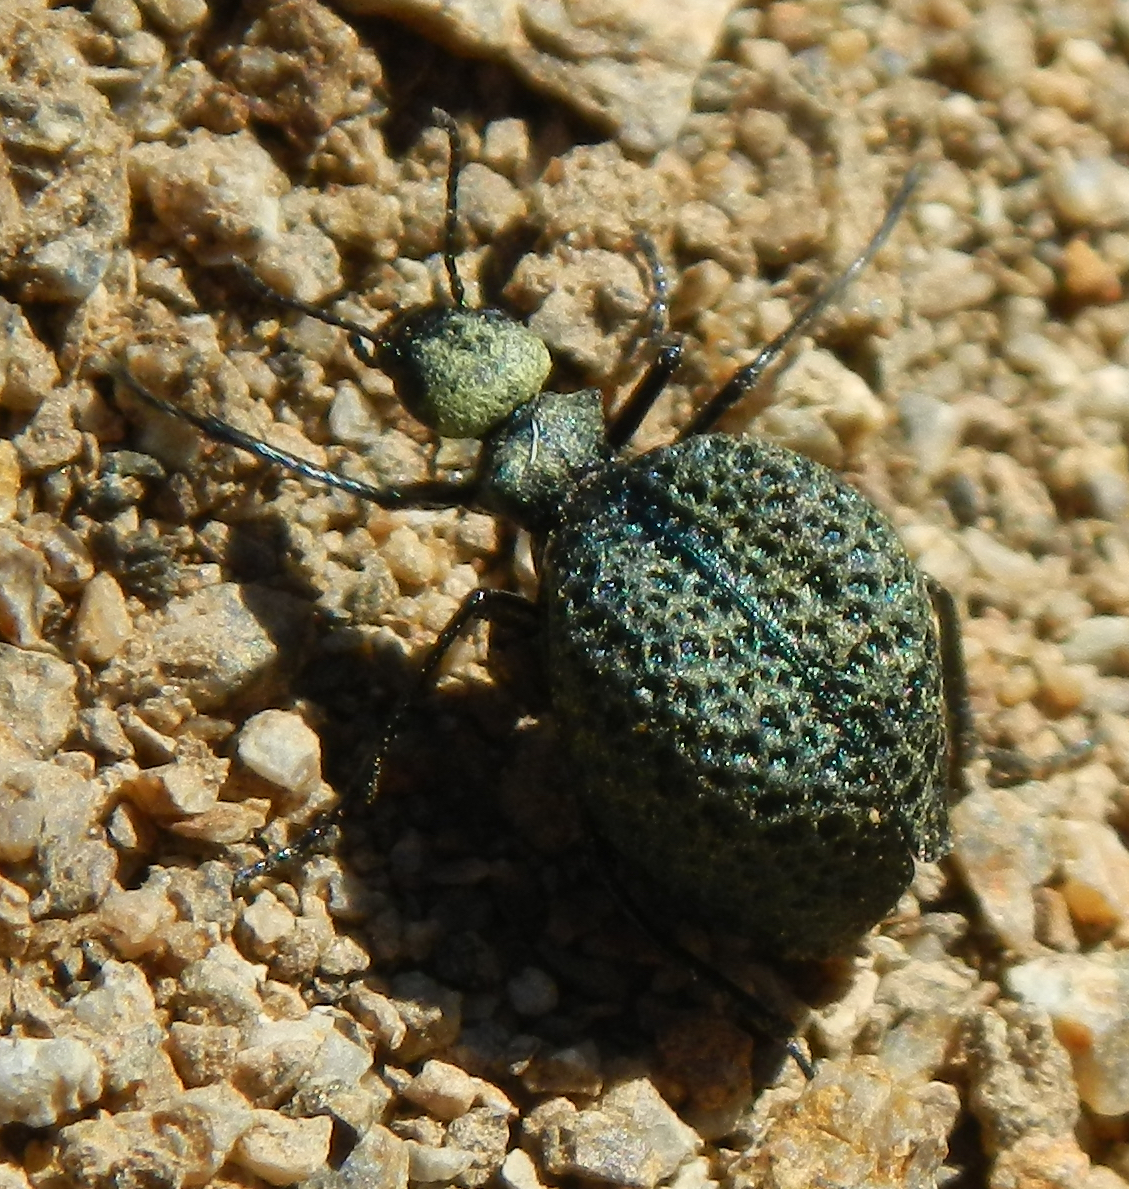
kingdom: Animalia
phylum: Arthropoda
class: Insecta
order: Coleoptera
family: Meloidae
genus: Cysteodemus
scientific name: Cysteodemus armatus
